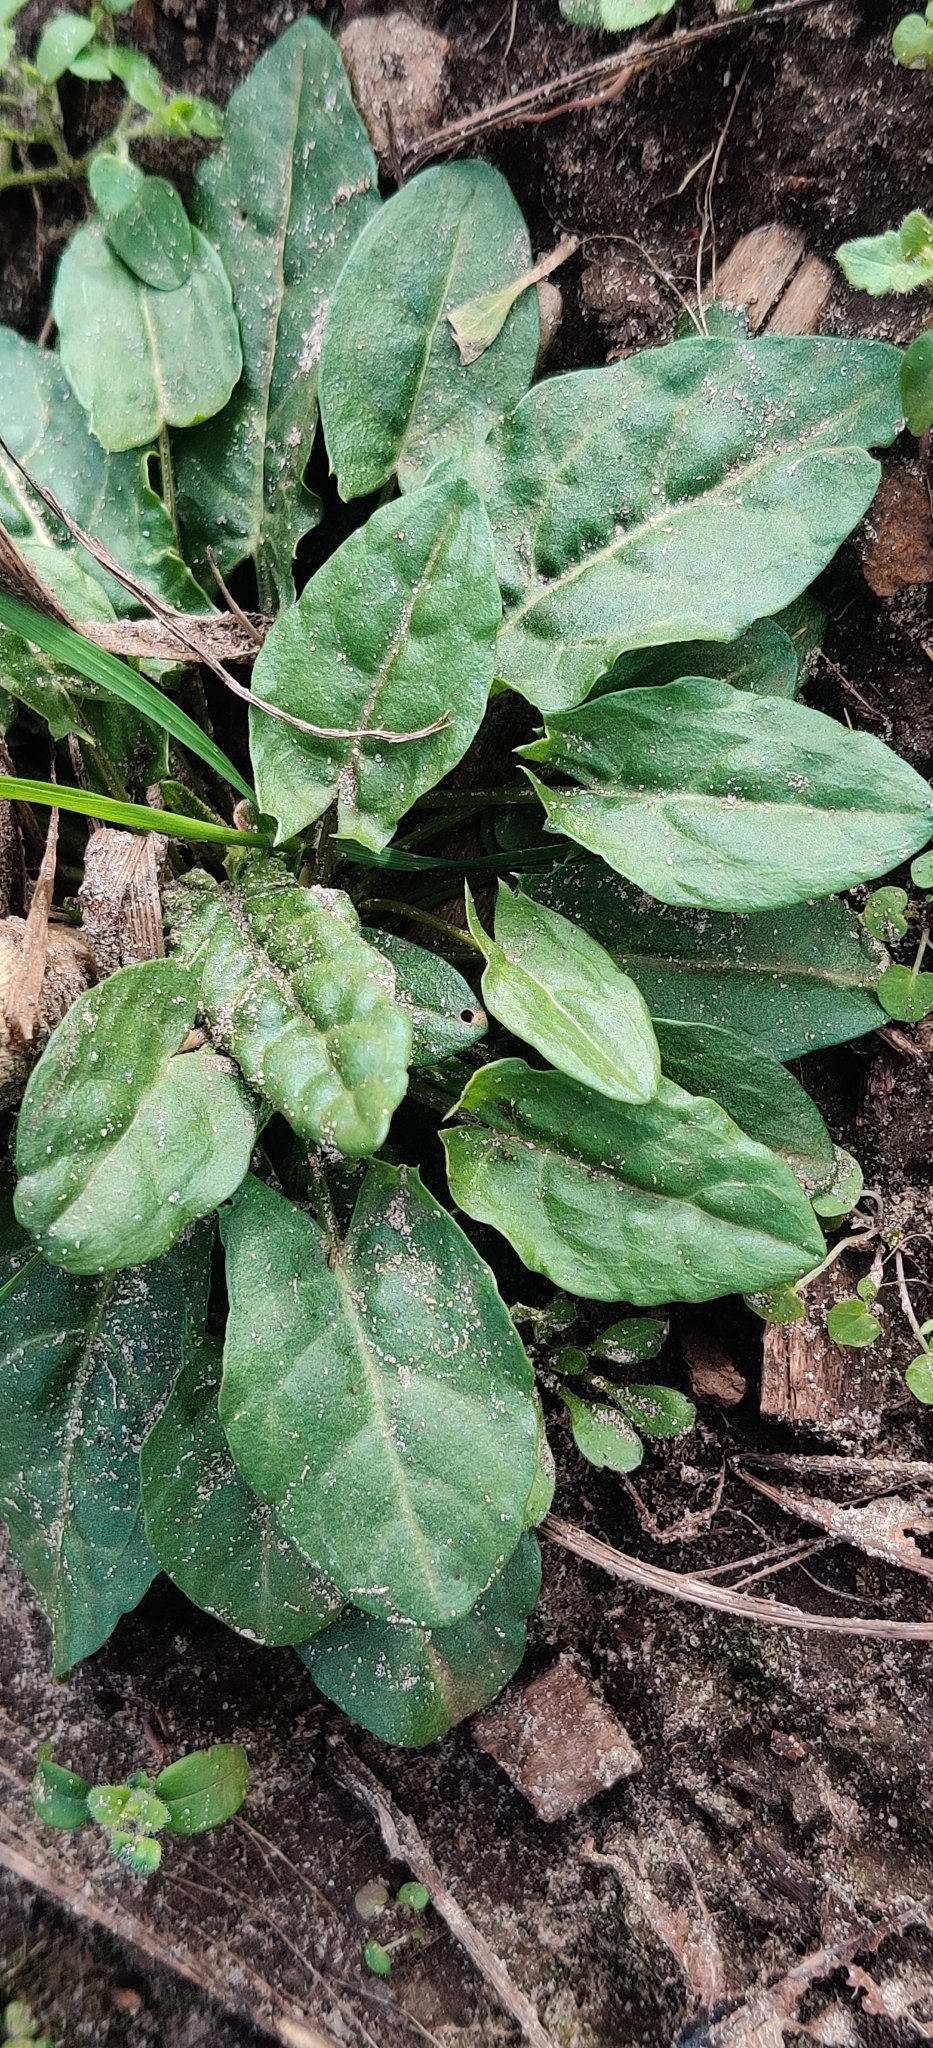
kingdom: Plantae
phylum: Tracheophyta
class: Magnoliopsida
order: Caryophyllales
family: Polygonaceae
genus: Rumex
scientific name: Rumex acetosa
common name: Garden sorrel
